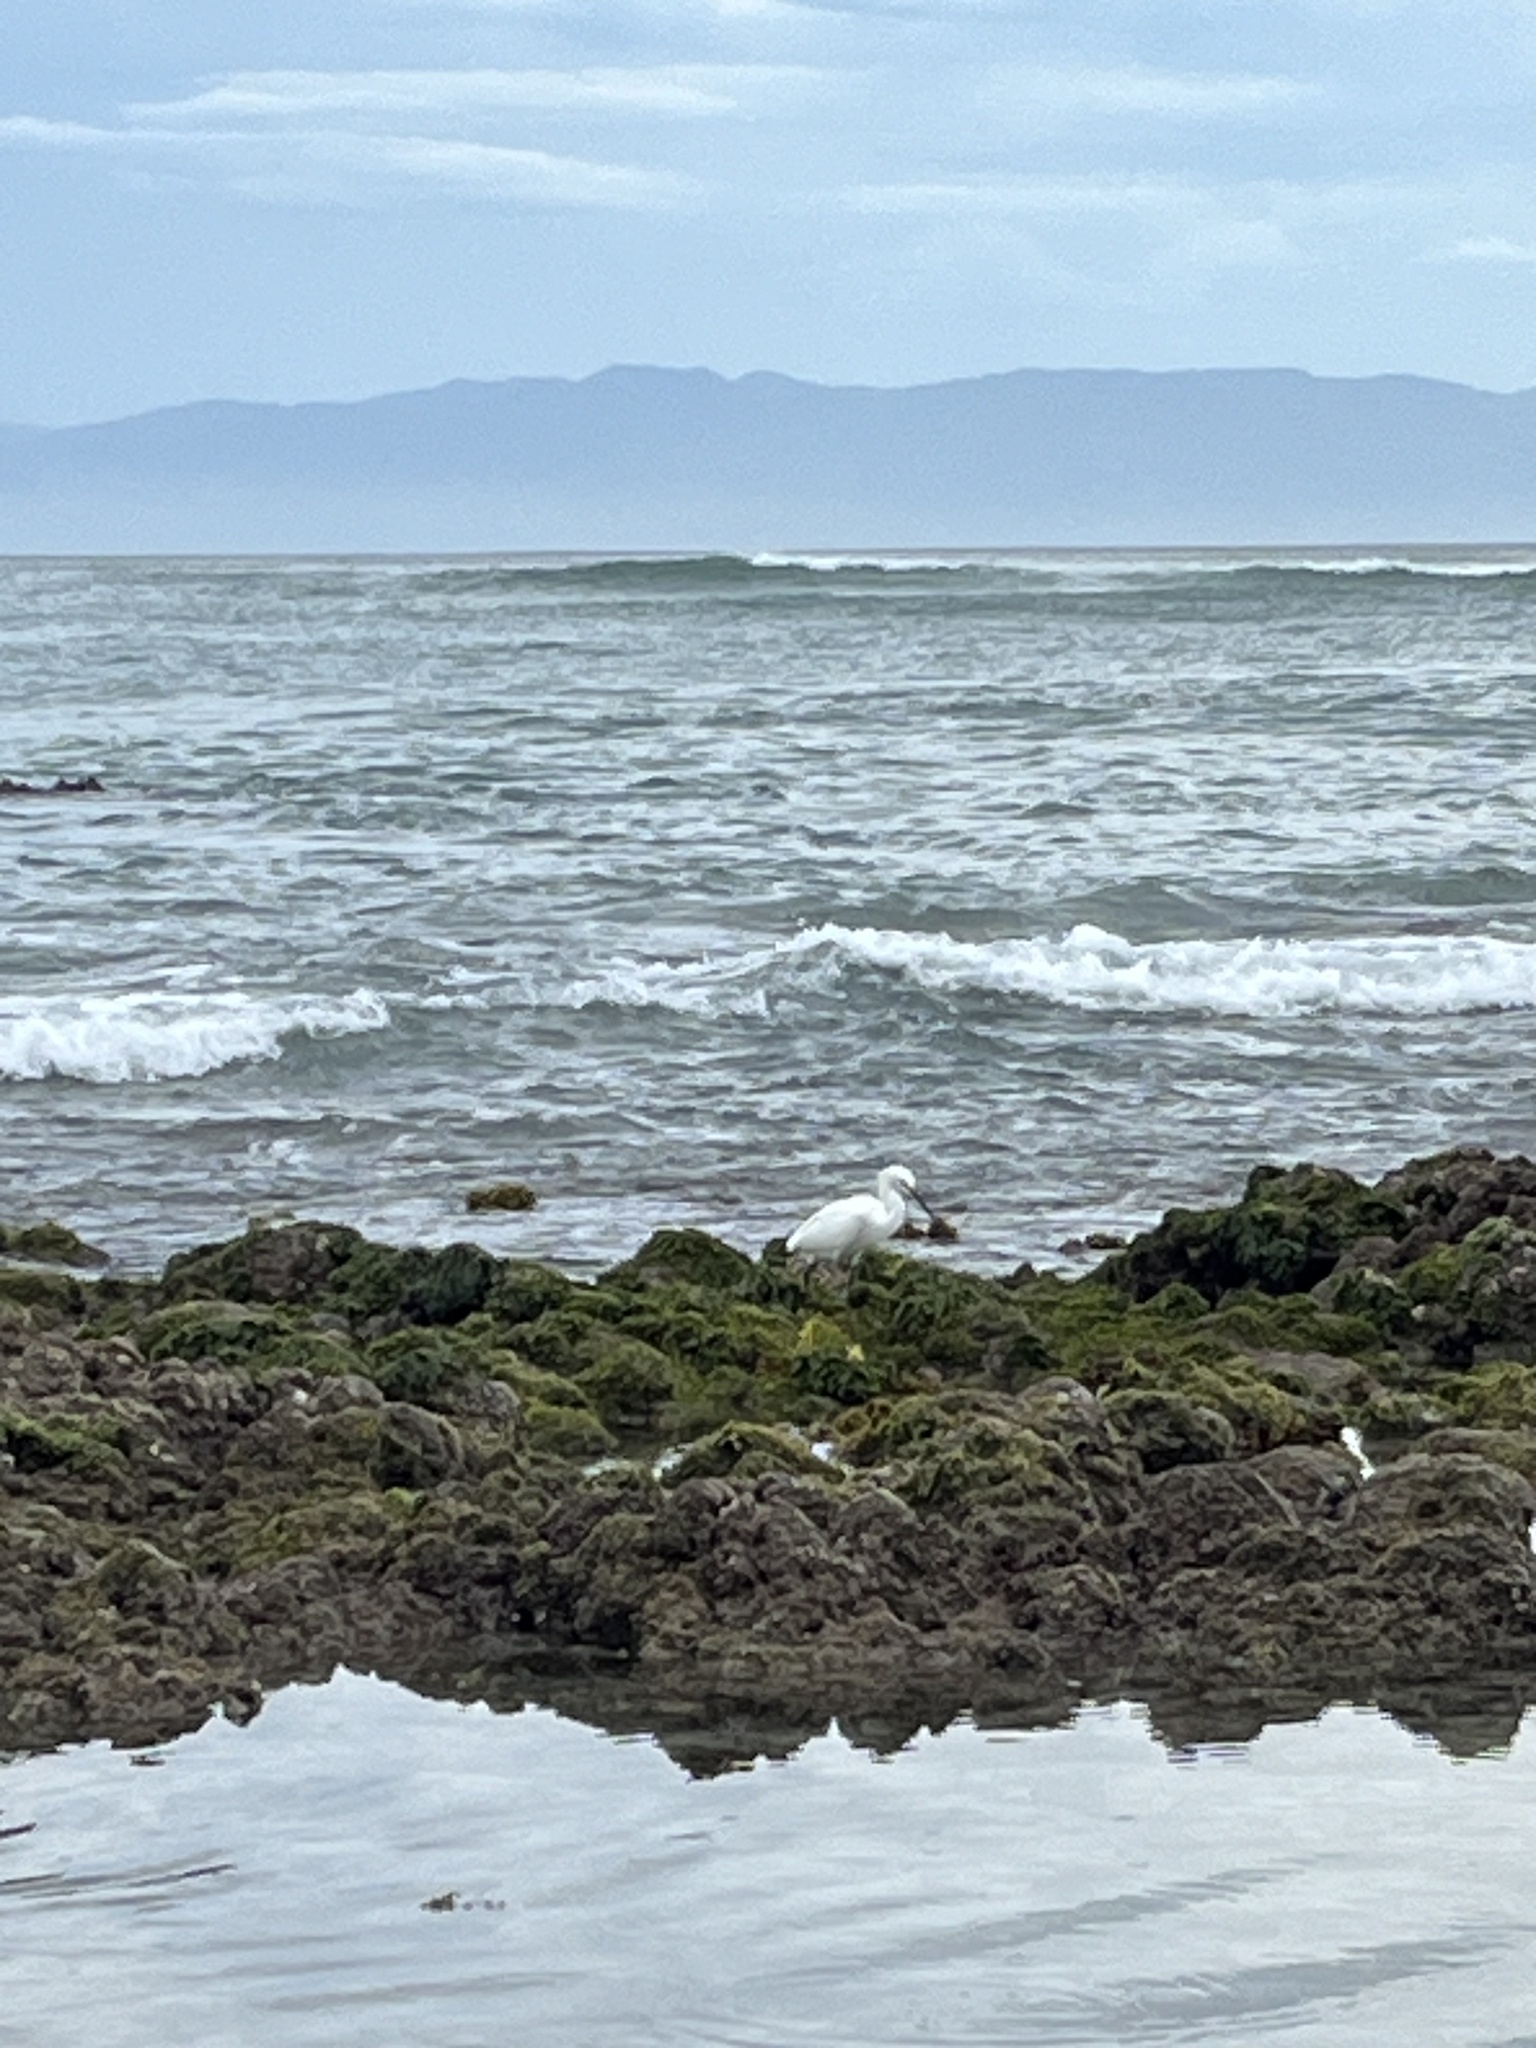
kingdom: Animalia
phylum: Chordata
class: Aves
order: Pelecaniformes
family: Ardeidae
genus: Egretta
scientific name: Egretta thula
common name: Snowy egret
